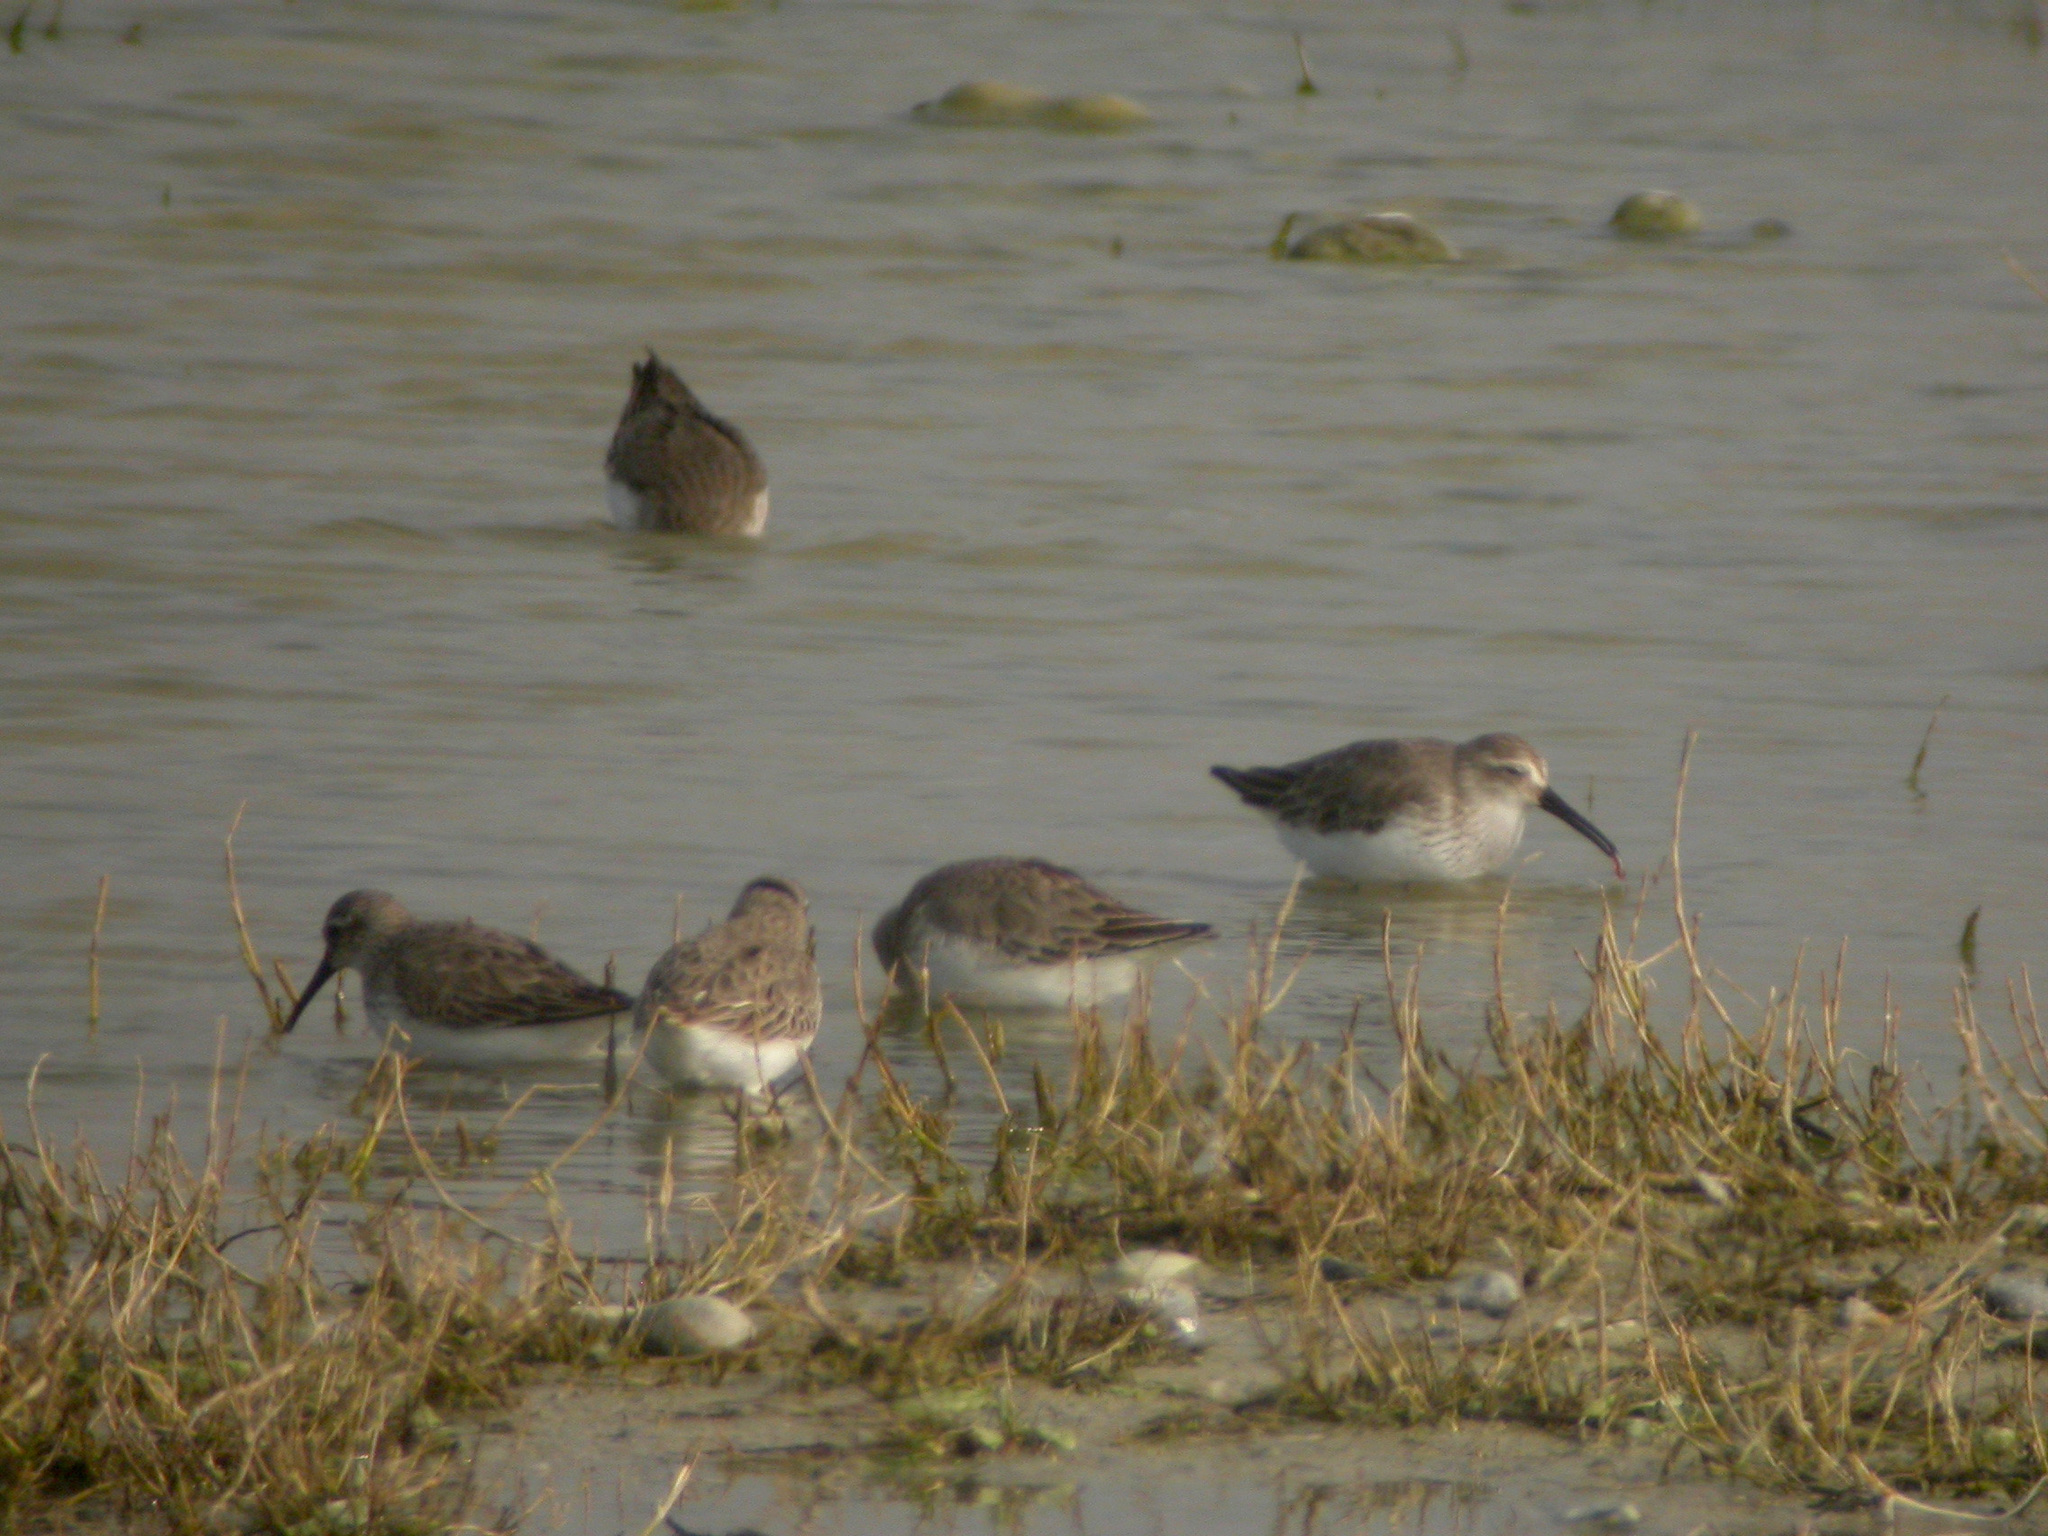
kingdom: Animalia
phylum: Chordata
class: Aves
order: Charadriiformes
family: Scolopacidae
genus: Calidris
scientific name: Calidris alpina
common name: Dunlin
